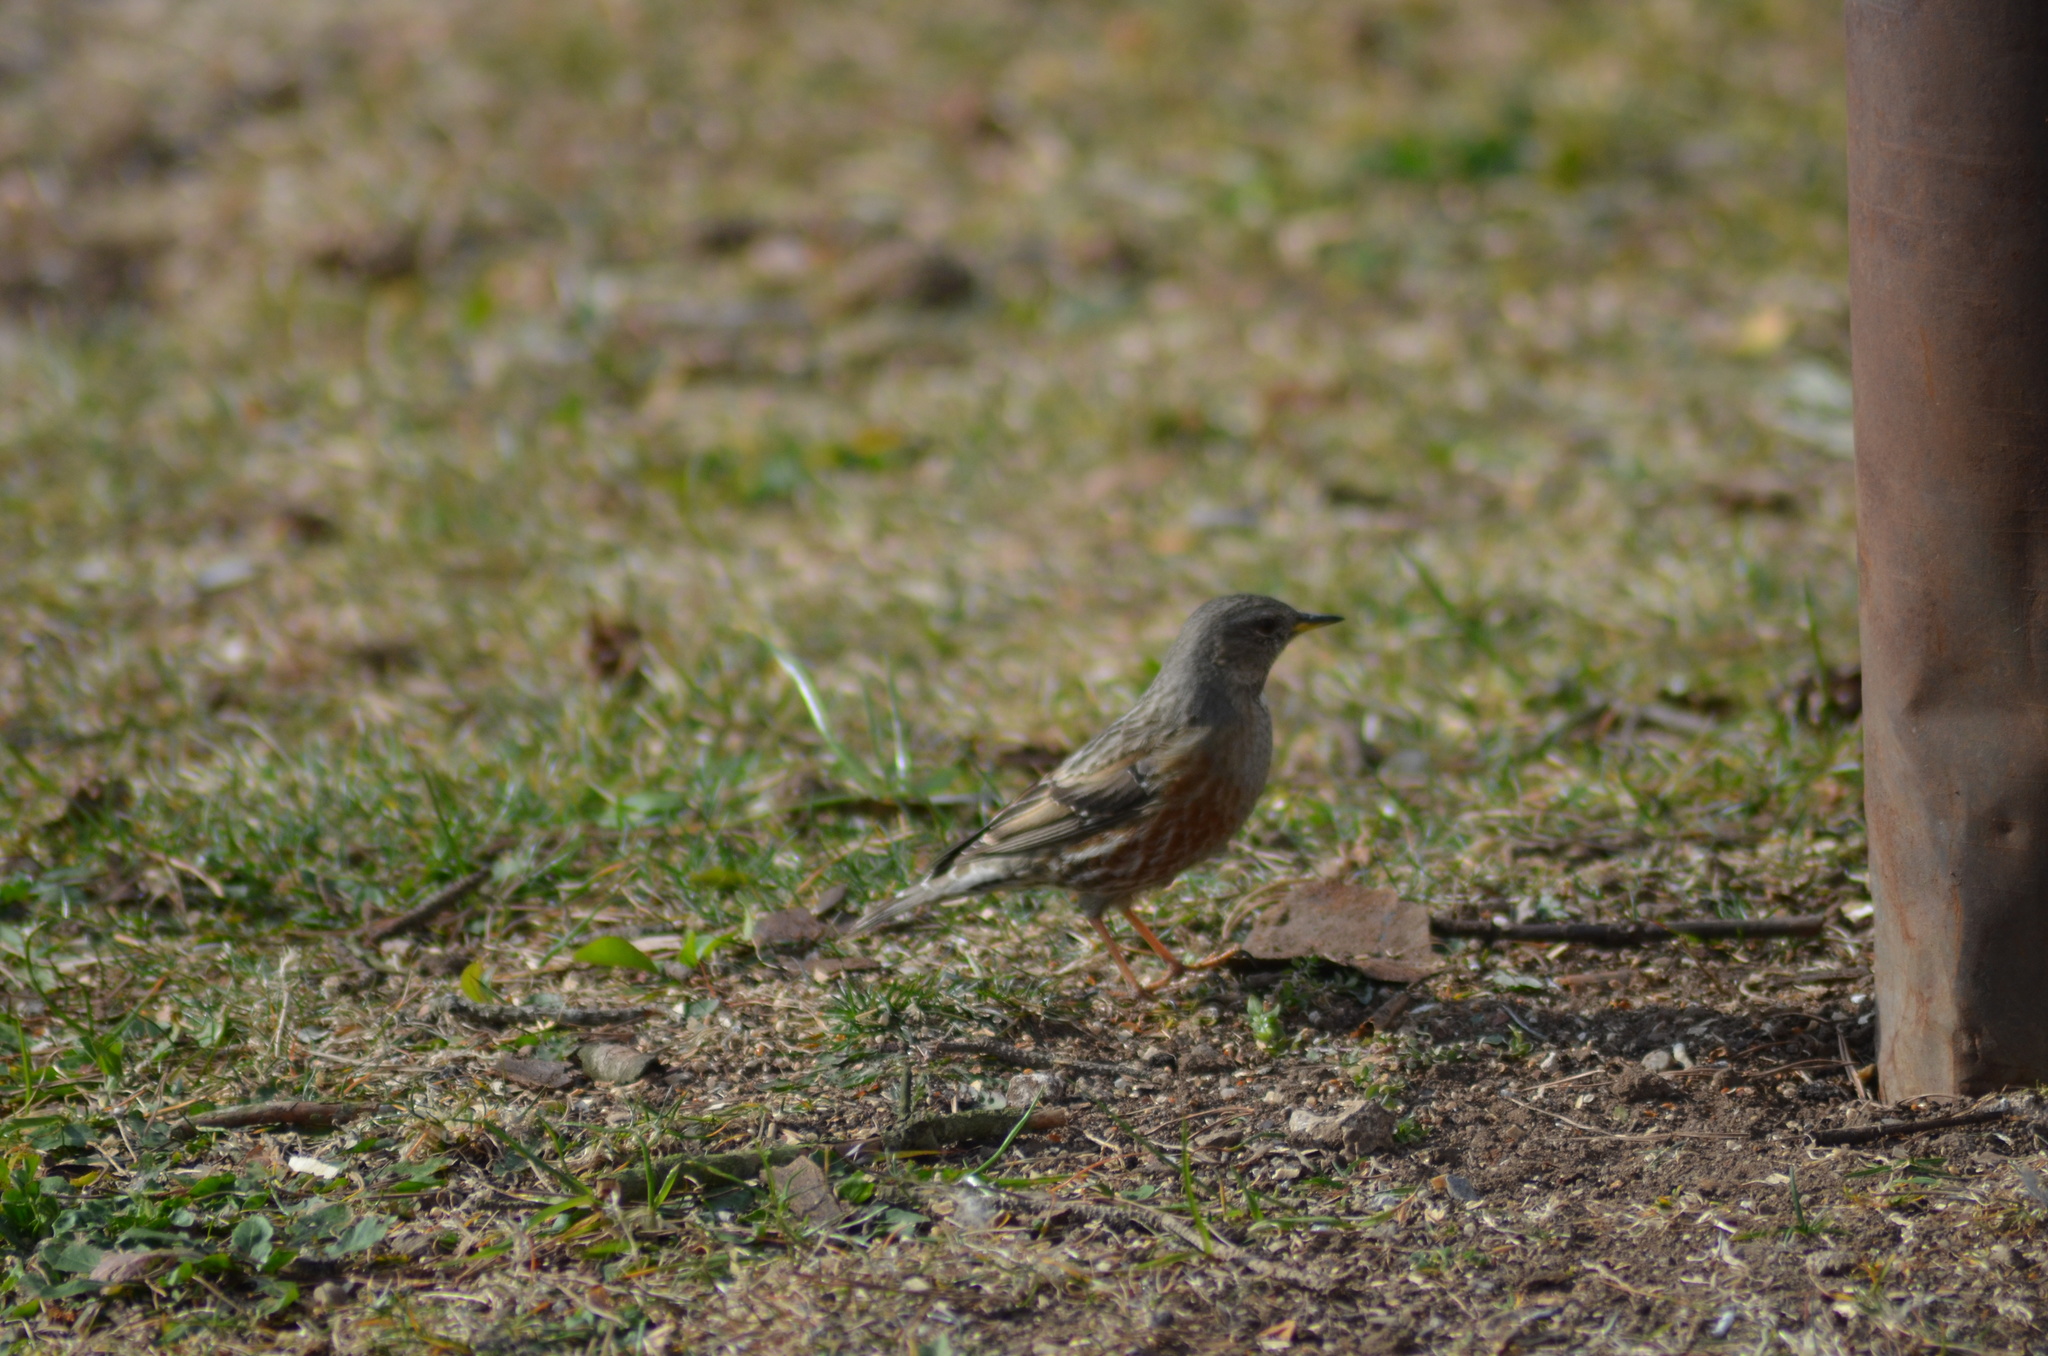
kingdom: Animalia
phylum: Chordata
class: Aves
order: Passeriformes
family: Prunellidae
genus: Prunella
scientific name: Prunella collaris
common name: Alpine accentor
